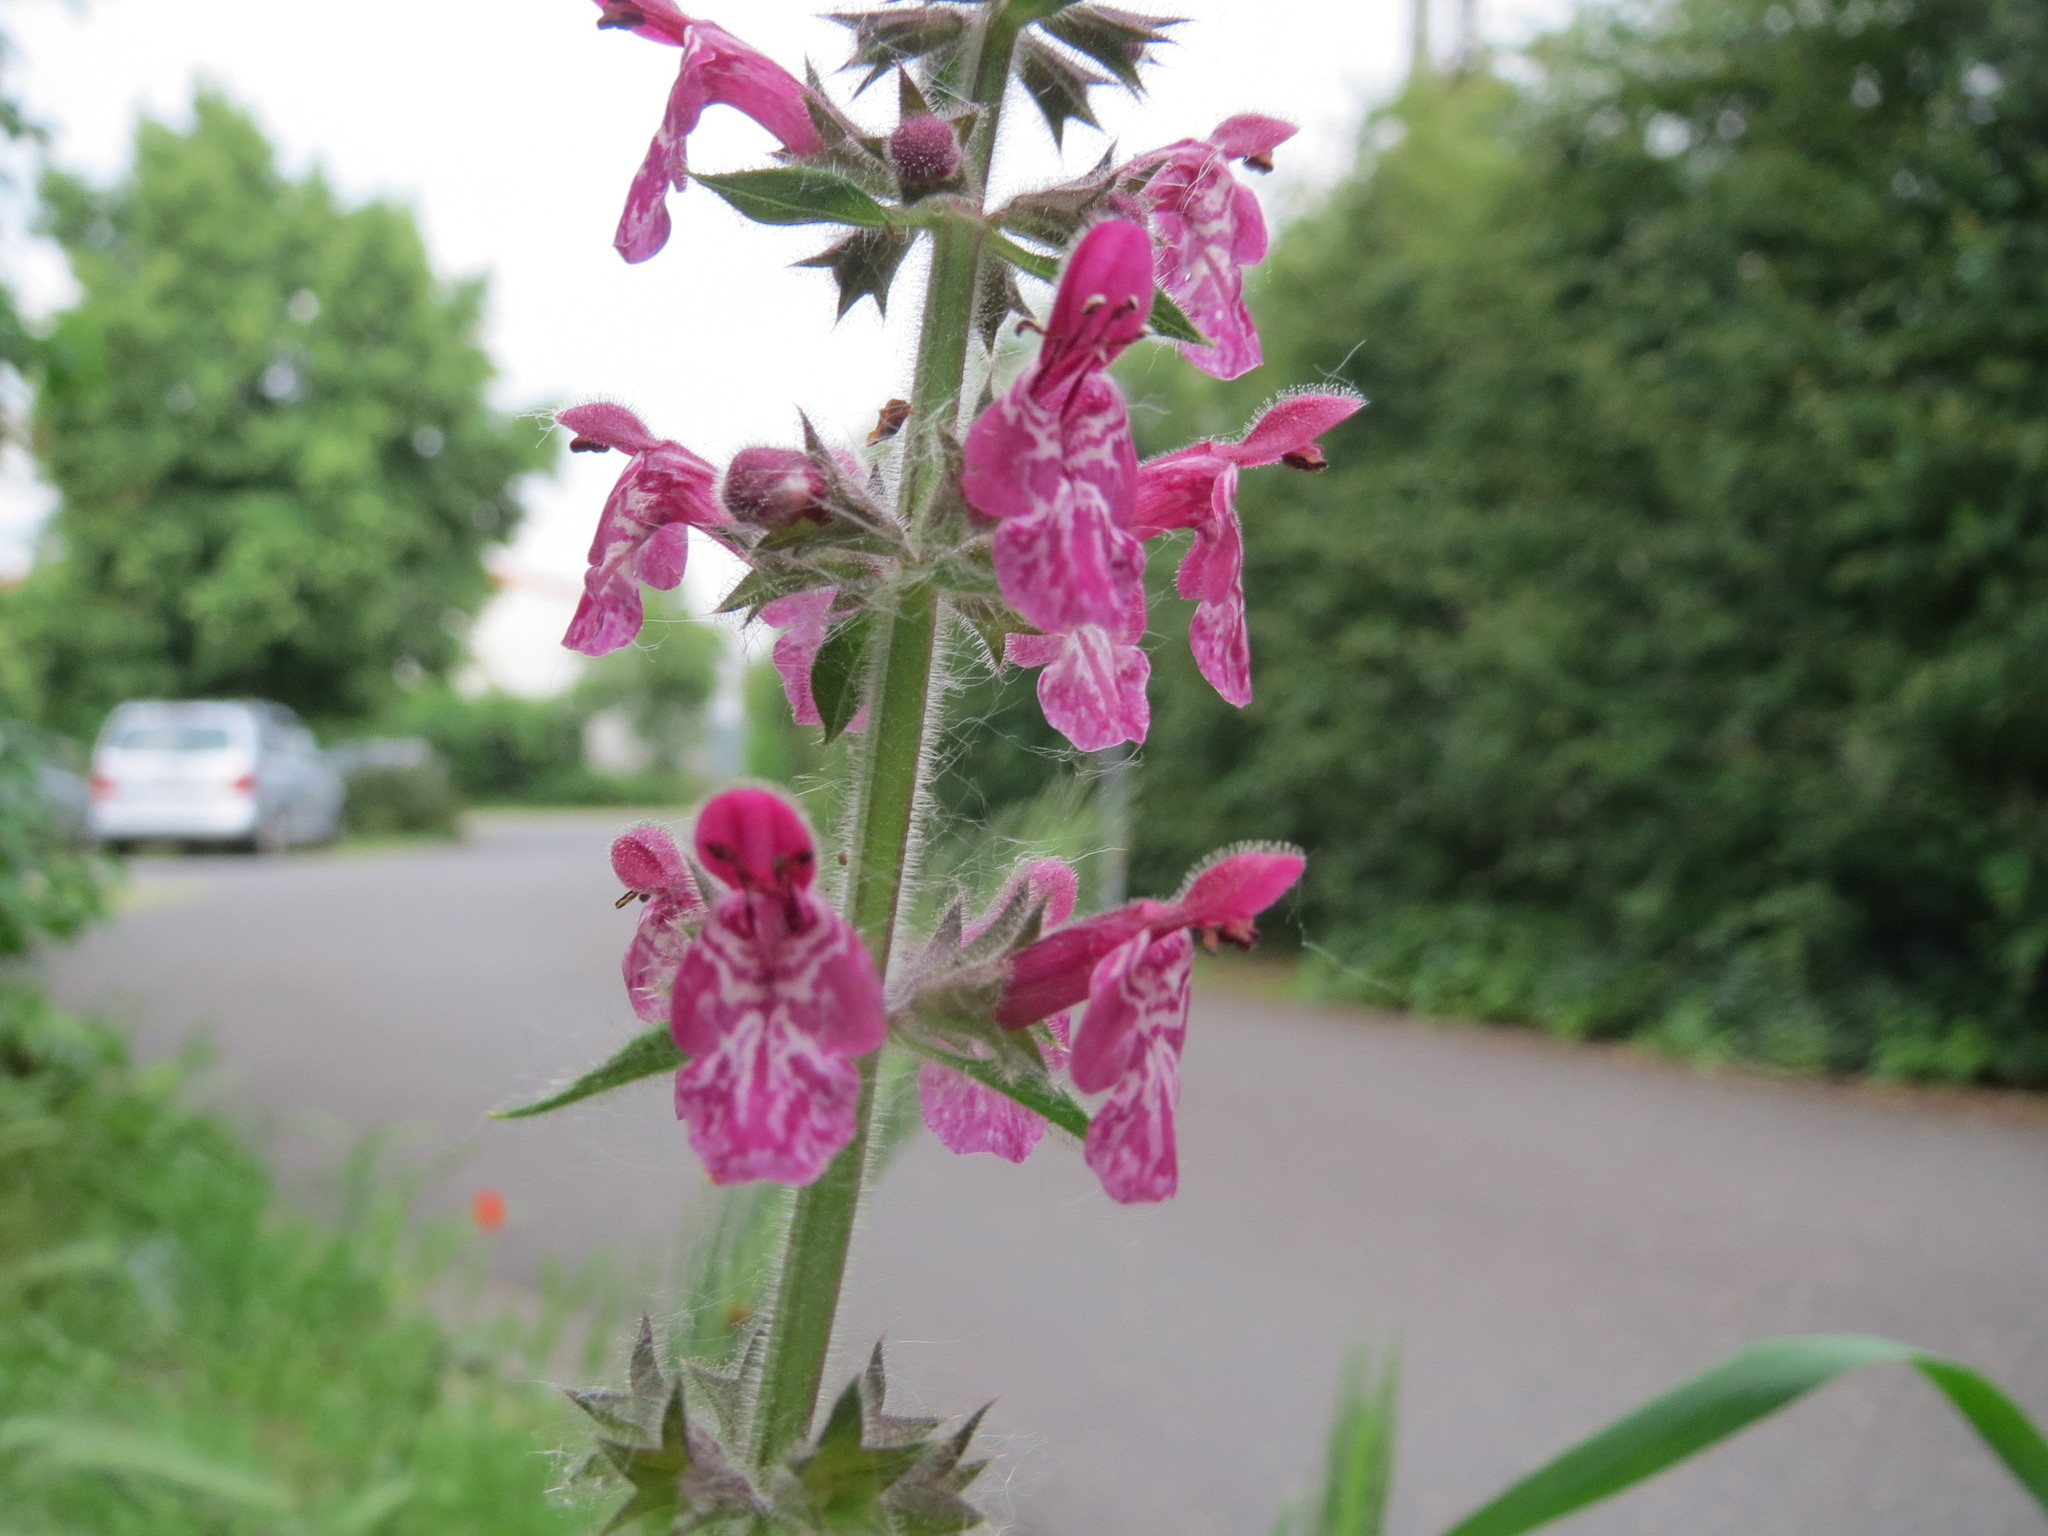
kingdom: Plantae
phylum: Tracheophyta
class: Magnoliopsida
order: Lamiales
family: Lamiaceae
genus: Stachys
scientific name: Stachys sylvatica
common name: Hedge woundwort
